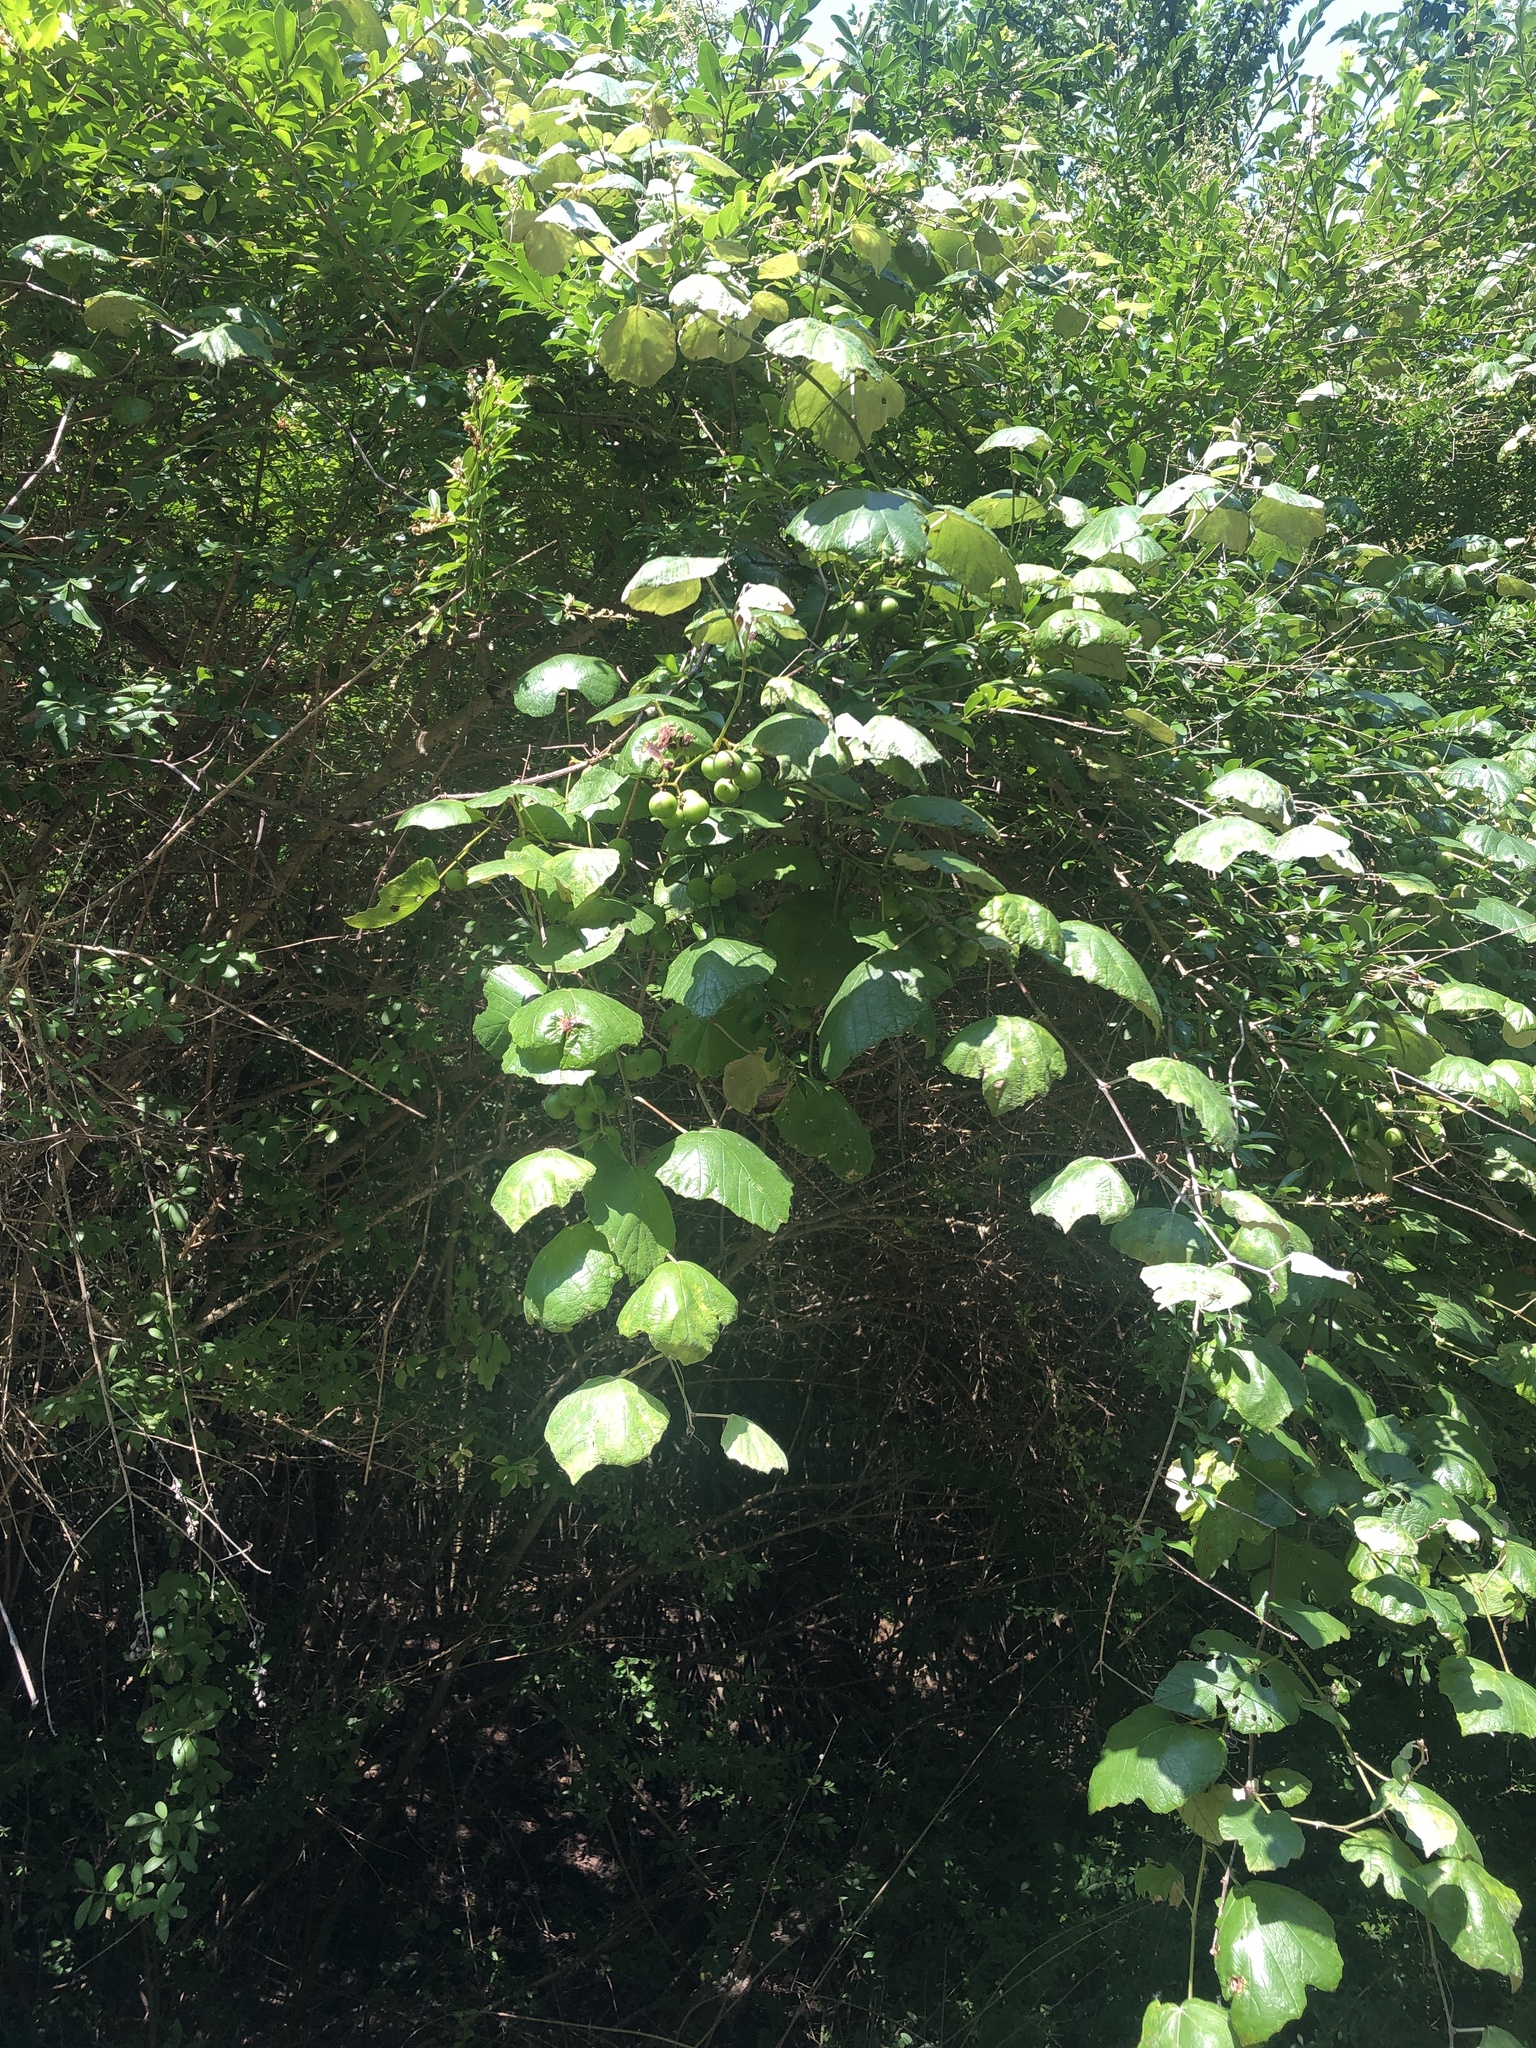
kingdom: Plantae
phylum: Tracheophyta
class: Magnoliopsida
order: Vitales
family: Vitaceae
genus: Vitis
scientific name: Vitis mustangensis
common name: Mustang grape
